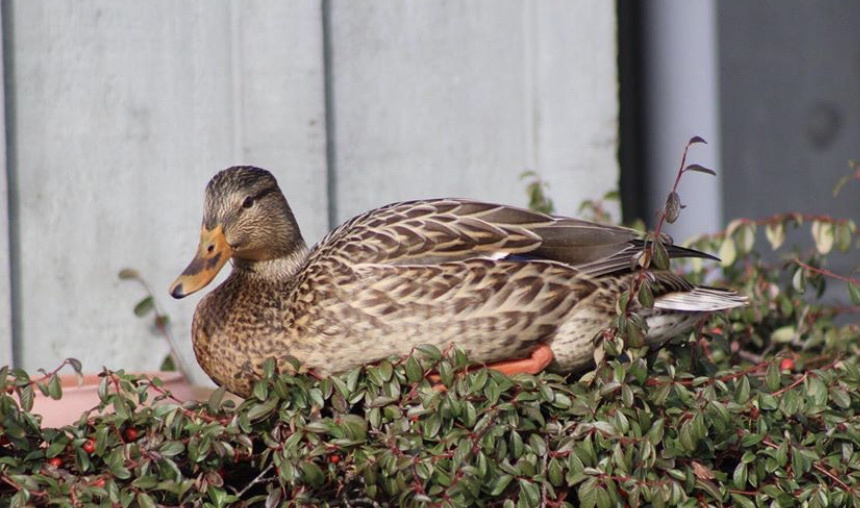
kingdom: Animalia
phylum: Chordata
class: Aves
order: Anseriformes
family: Anatidae
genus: Anas
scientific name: Anas platyrhynchos
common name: Mallard
